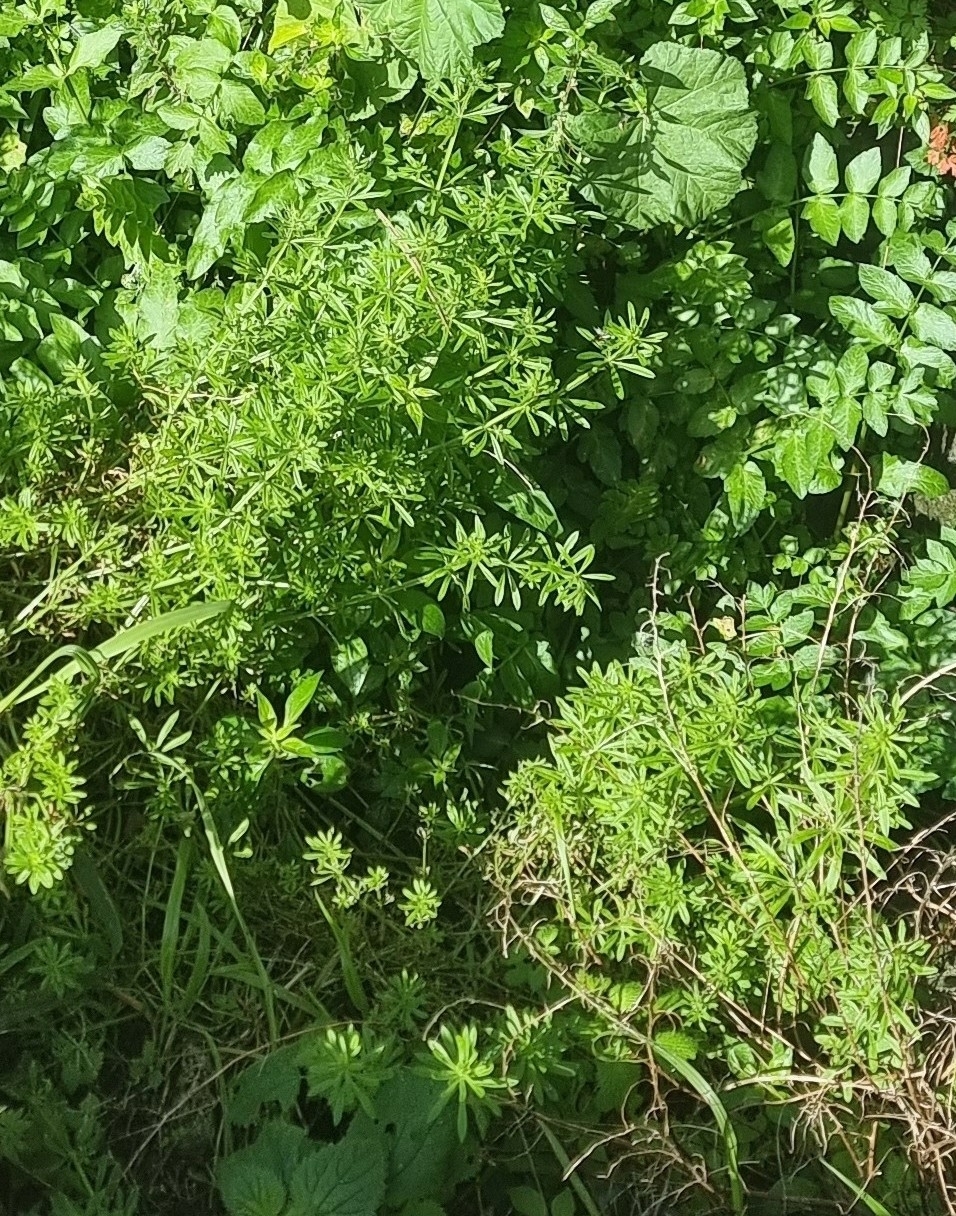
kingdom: Plantae
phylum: Tracheophyta
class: Magnoliopsida
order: Gentianales
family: Rubiaceae
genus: Galium
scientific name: Galium aparine
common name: Cleavers
